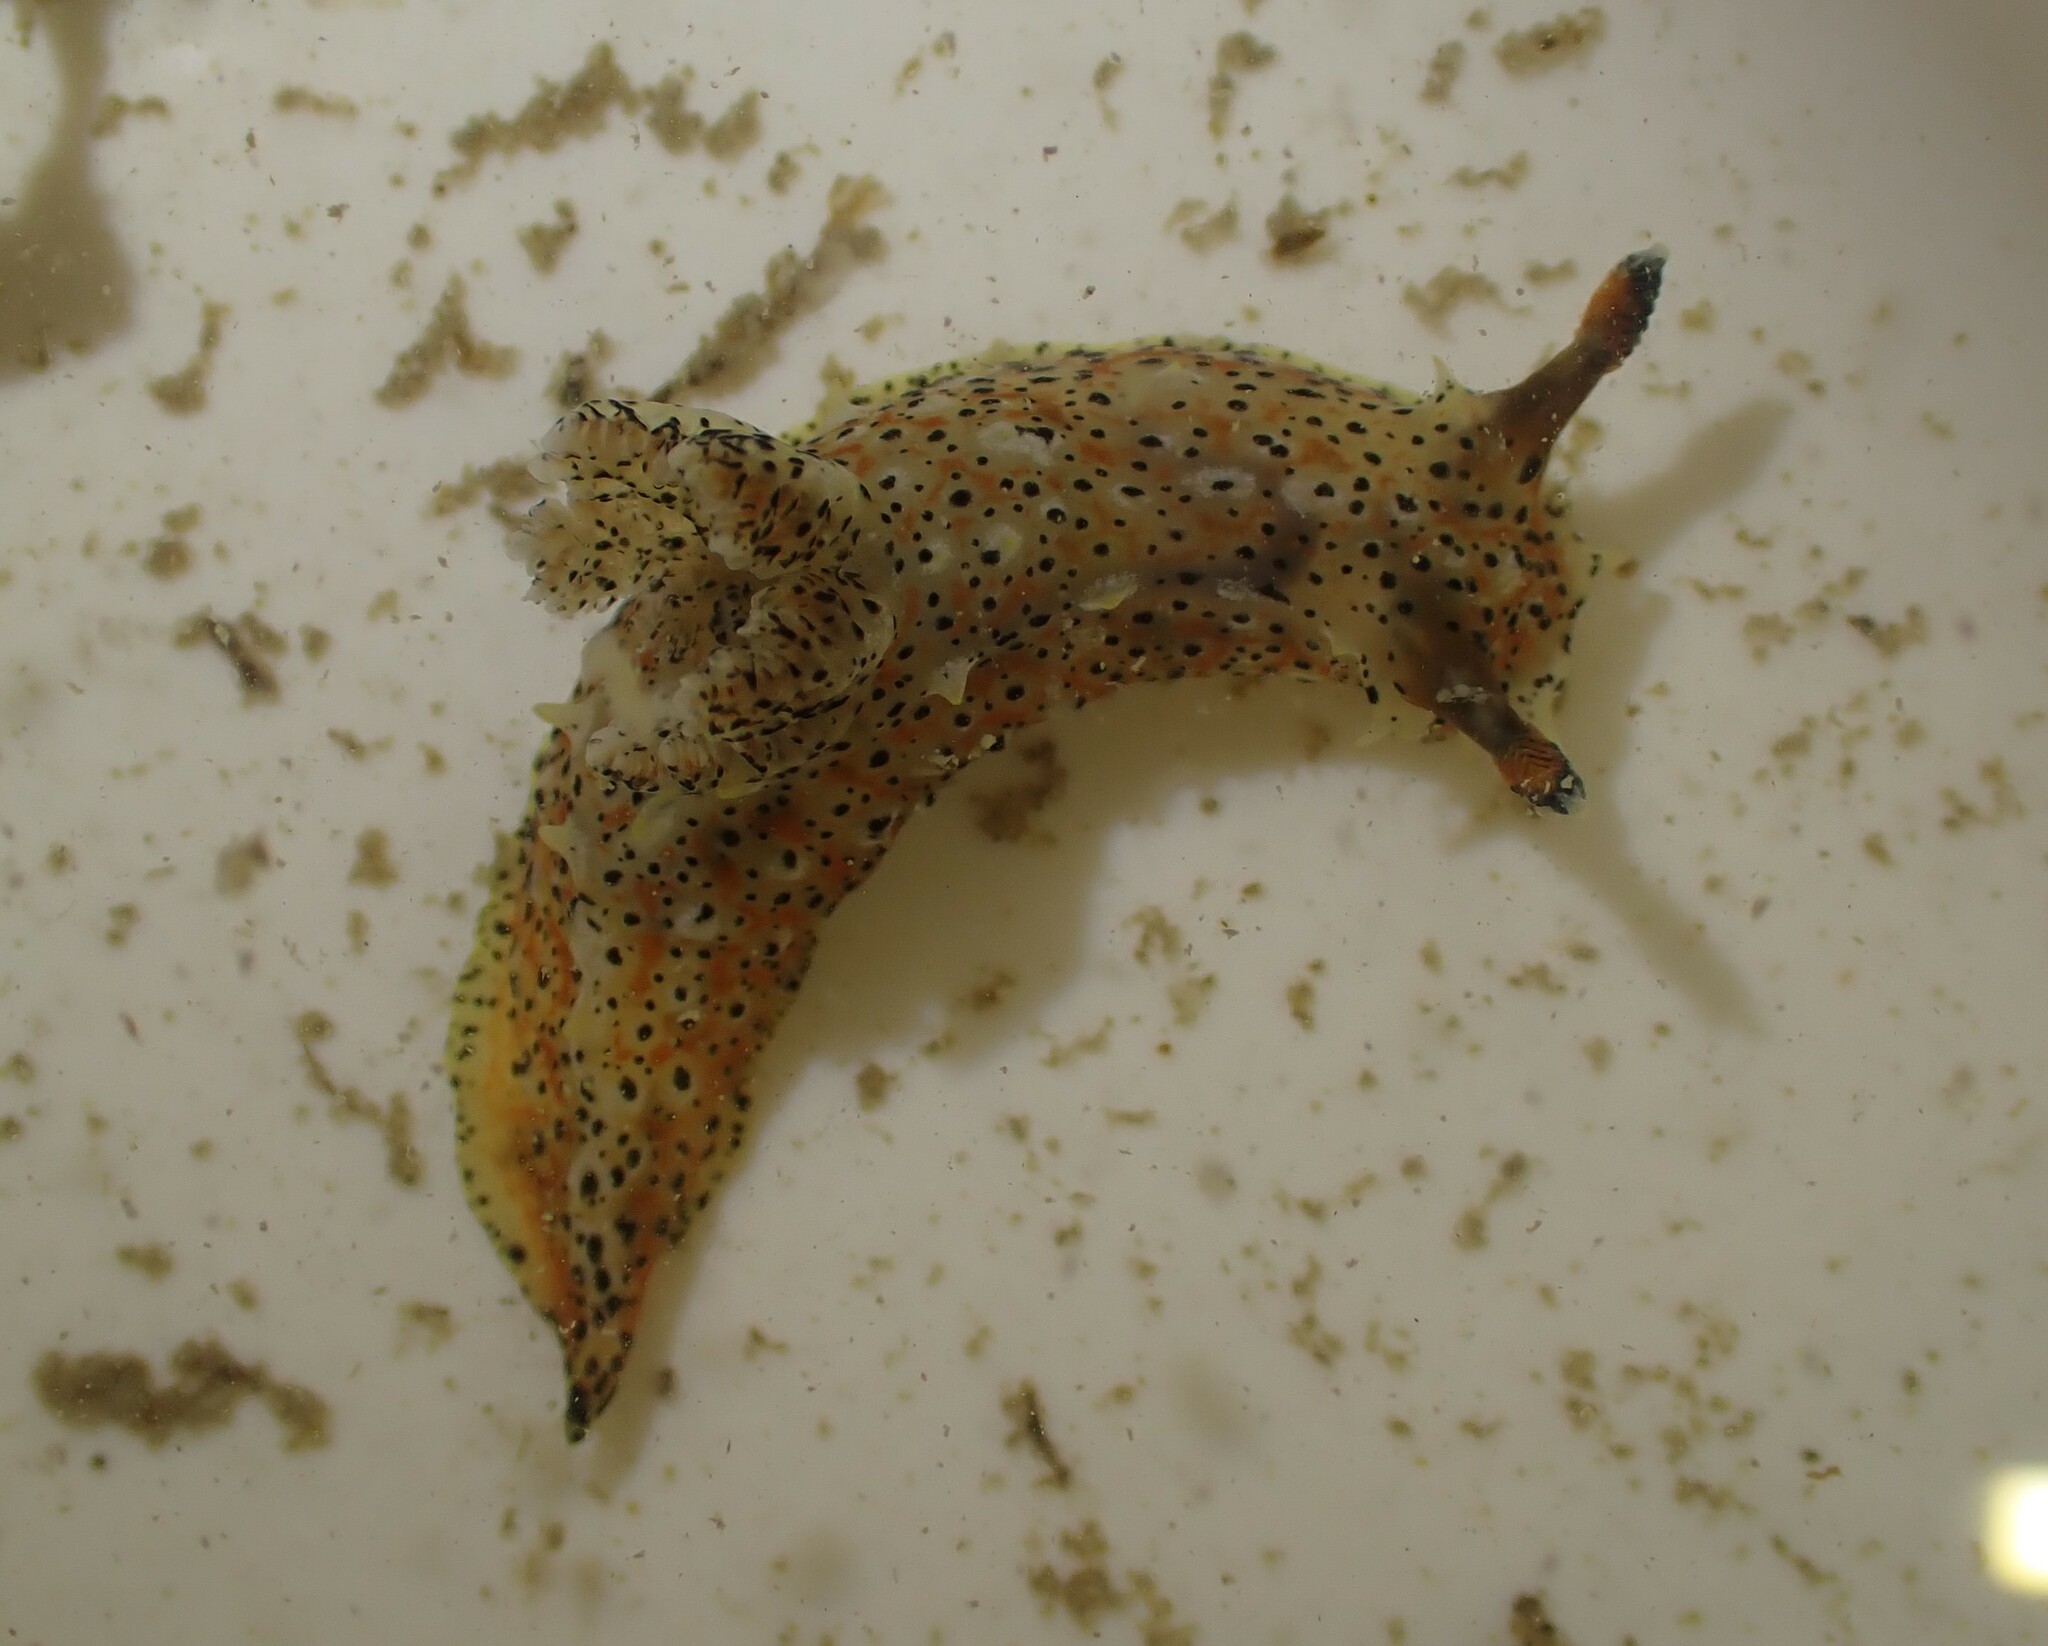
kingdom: Animalia
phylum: Mollusca
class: Gastropoda
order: Nudibranchia
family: Polyceridae
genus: Polycera
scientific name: Polycera fujitai
